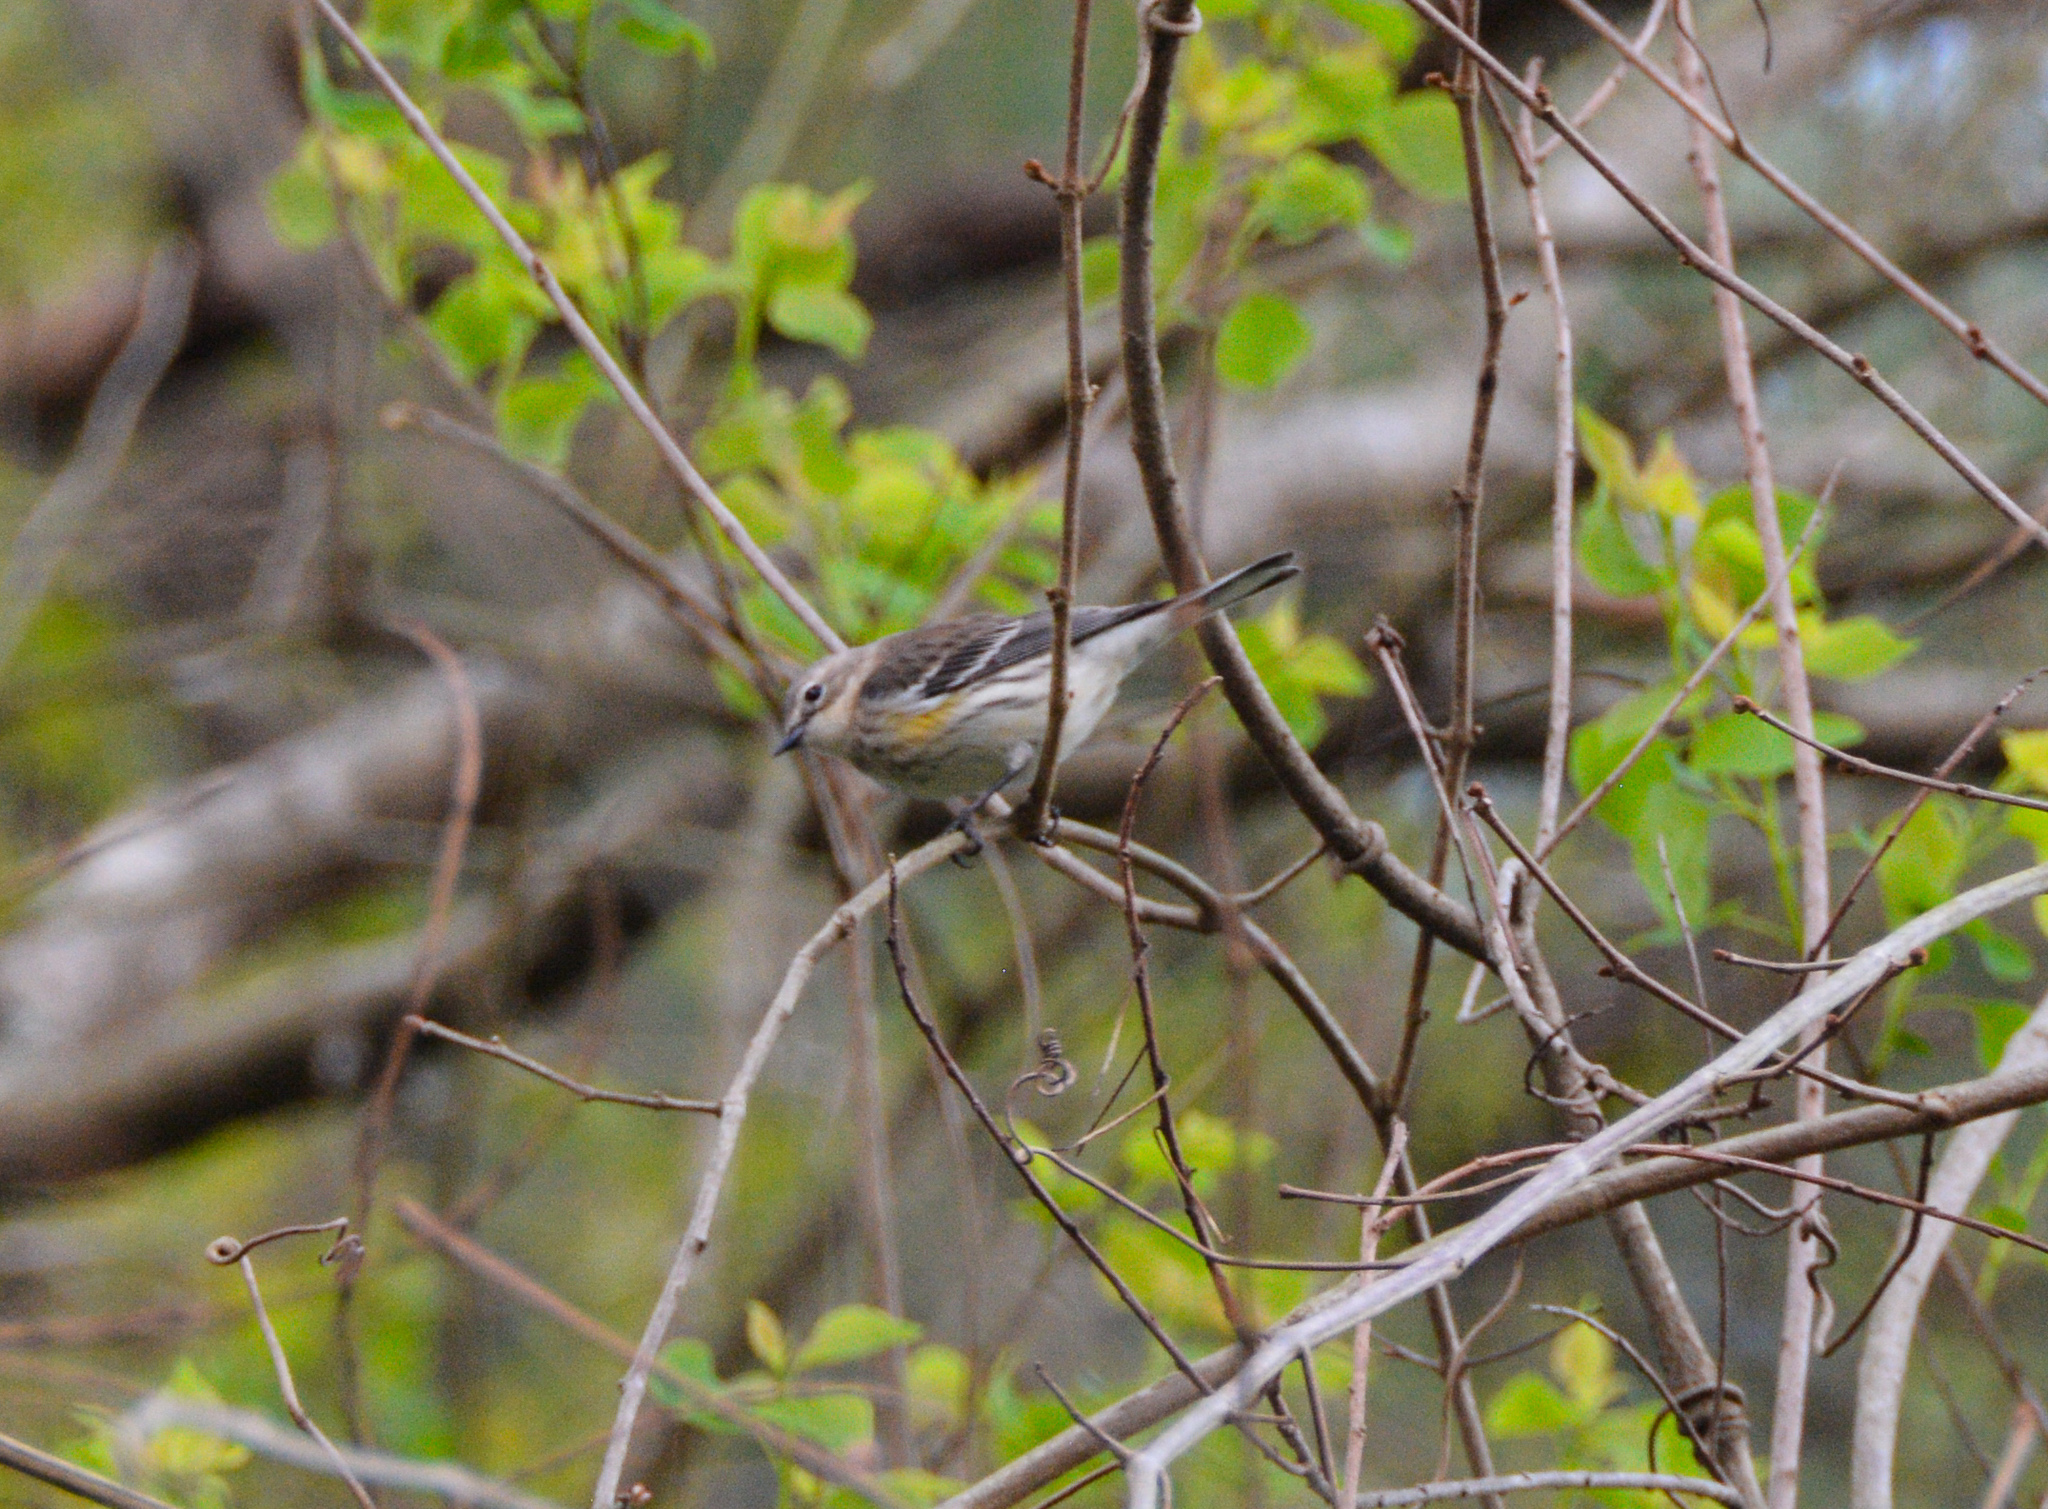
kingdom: Animalia
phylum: Chordata
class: Aves
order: Passeriformes
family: Parulidae
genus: Setophaga
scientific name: Setophaga coronata
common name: Myrtle warbler
